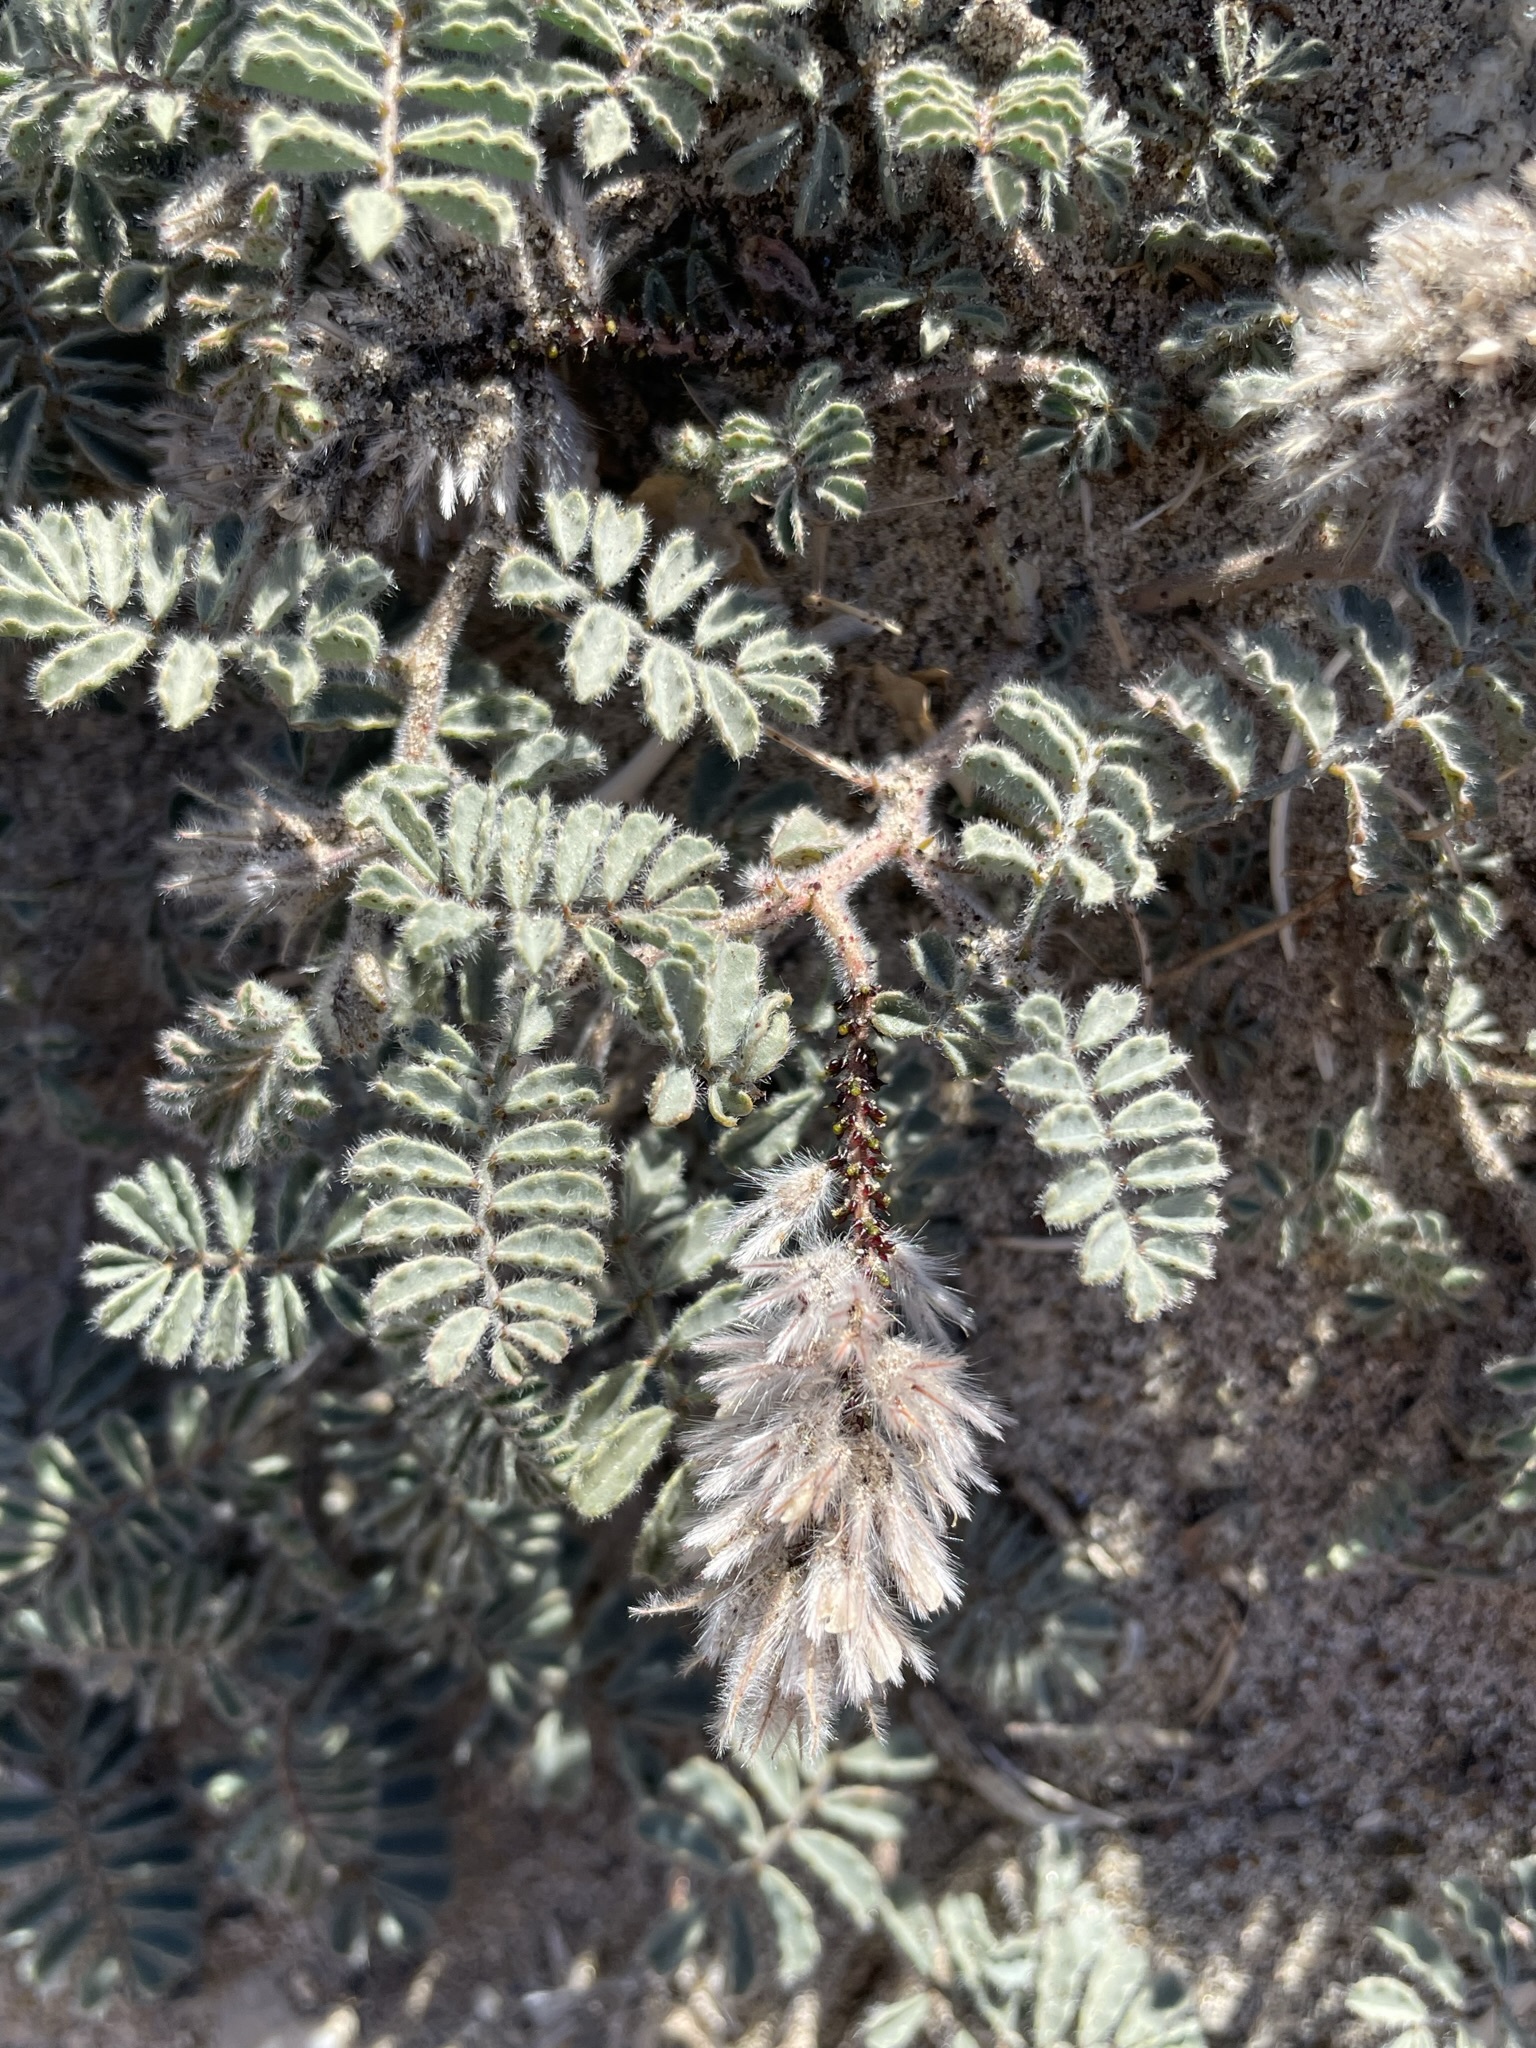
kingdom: Plantae
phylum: Tracheophyta
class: Magnoliopsida
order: Fabales
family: Fabaceae
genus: Dalea
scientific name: Dalea mollissima
